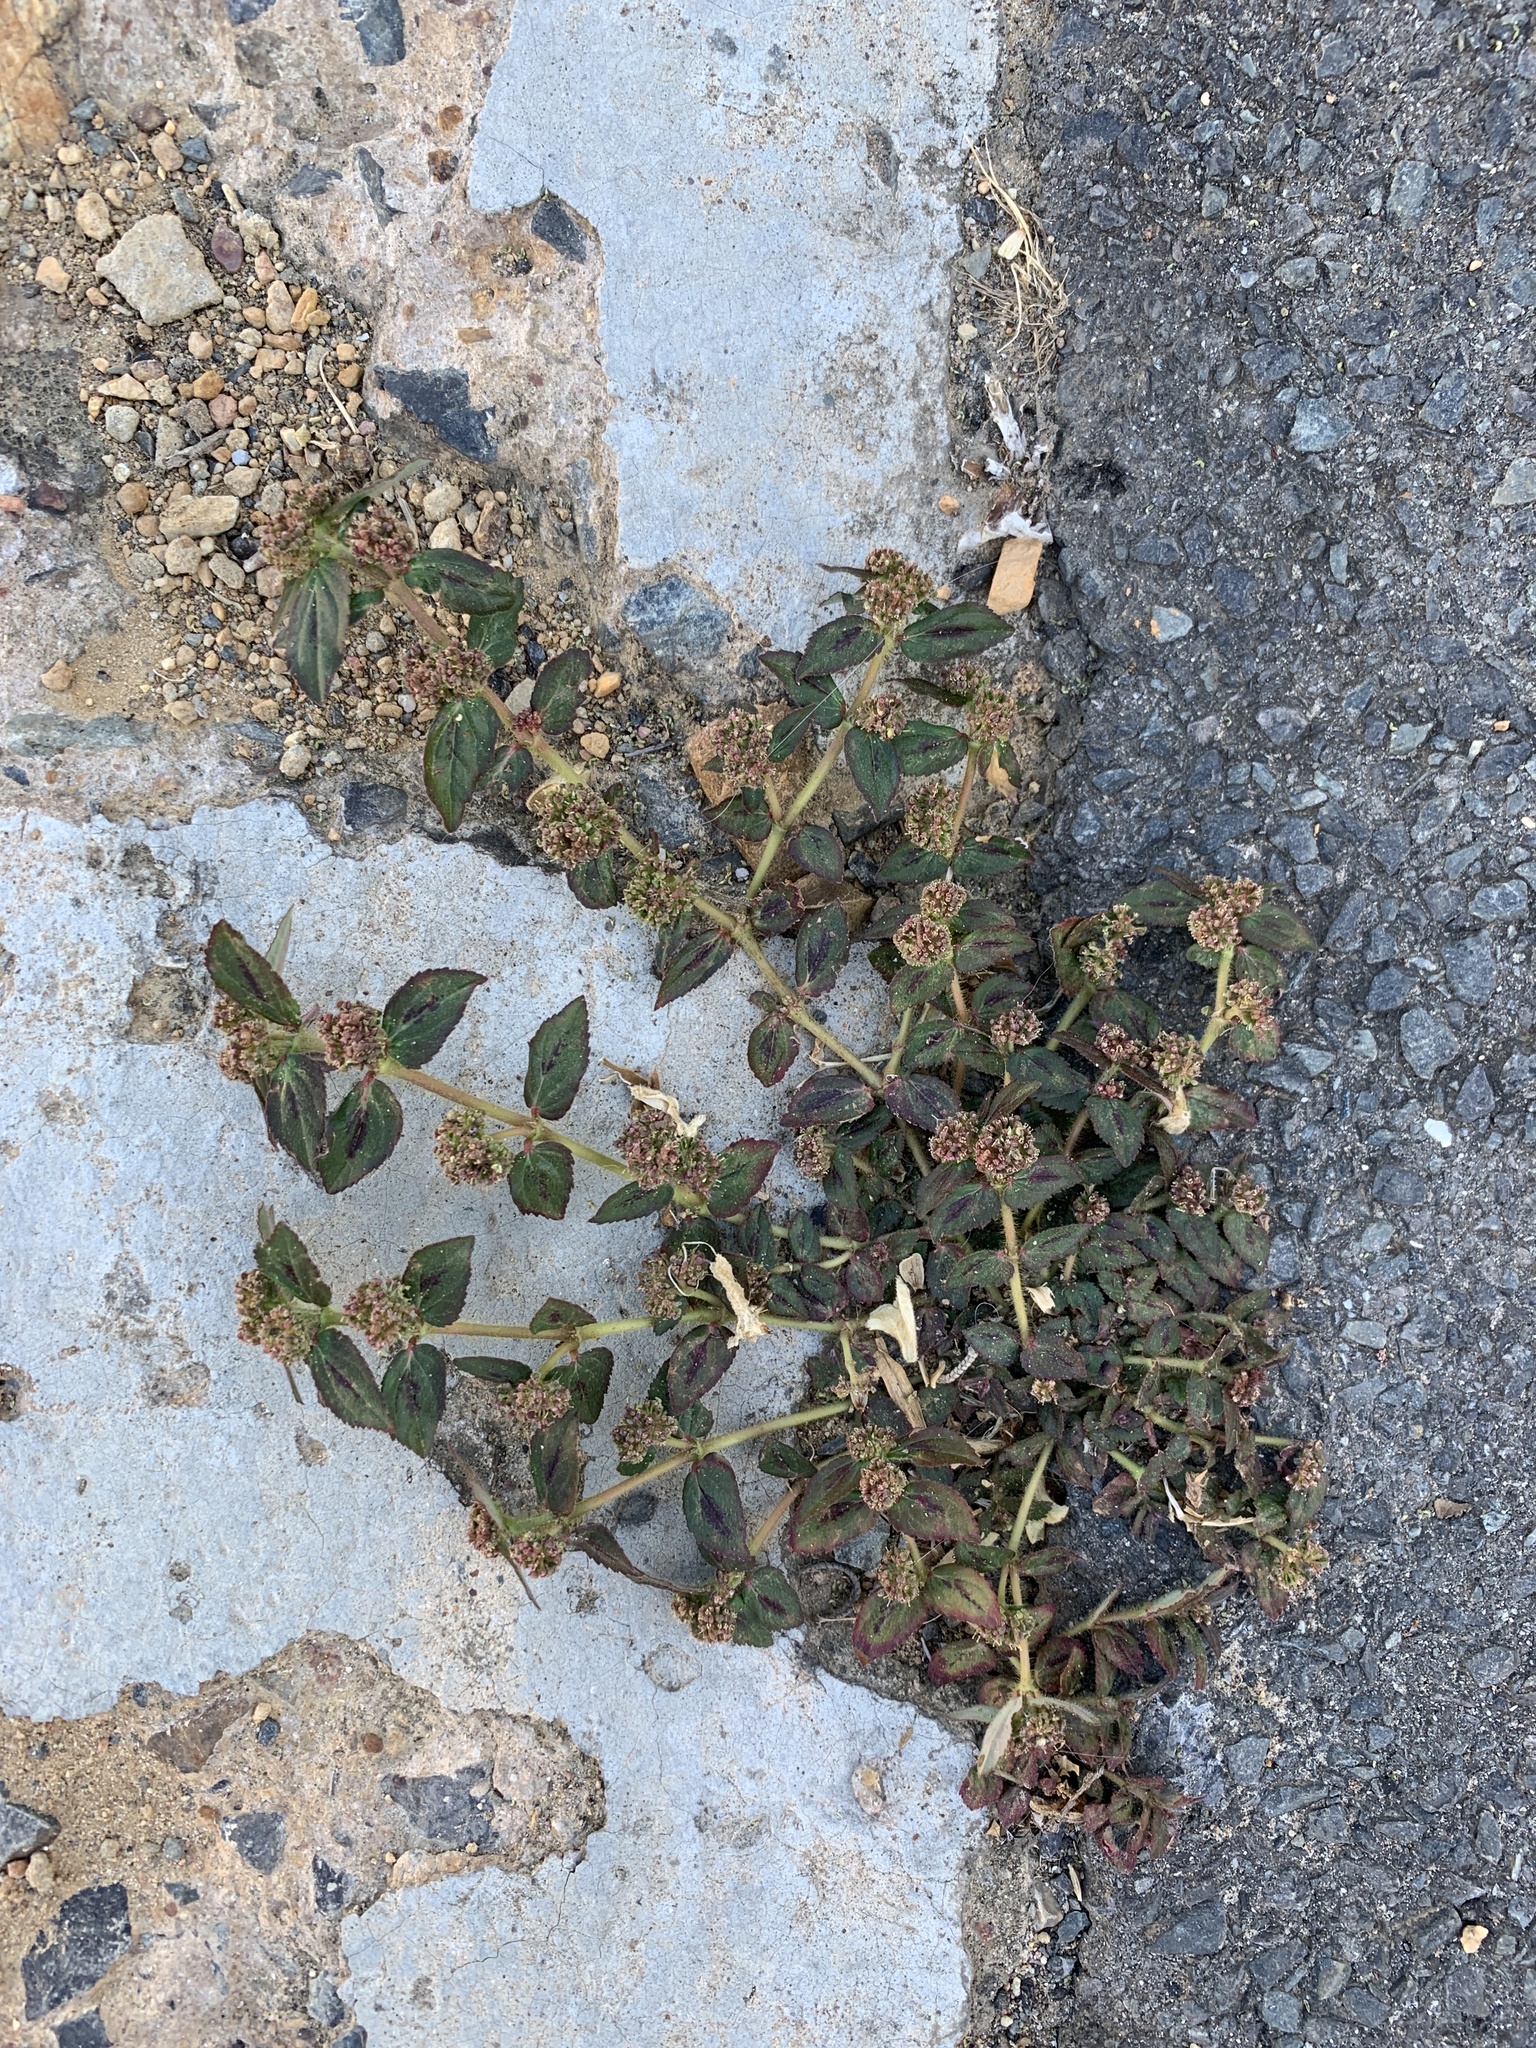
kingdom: Plantae
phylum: Tracheophyta
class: Magnoliopsida
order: Malpighiales
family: Euphorbiaceae
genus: Euphorbia
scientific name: Euphorbia hirta
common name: Pillpod sandmat
